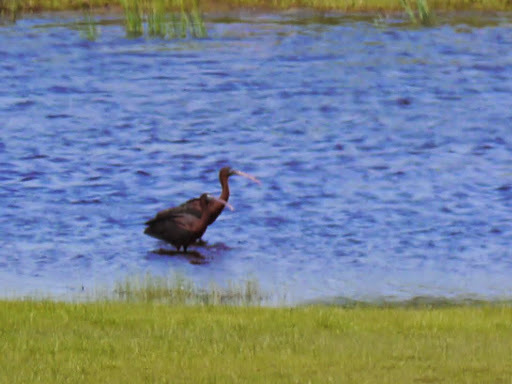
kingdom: Animalia
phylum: Chordata
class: Aves
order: Pelecaniformes
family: Threskiornithidae
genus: Plegadis
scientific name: Plegadis falcinellus
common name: Glossy ibis
